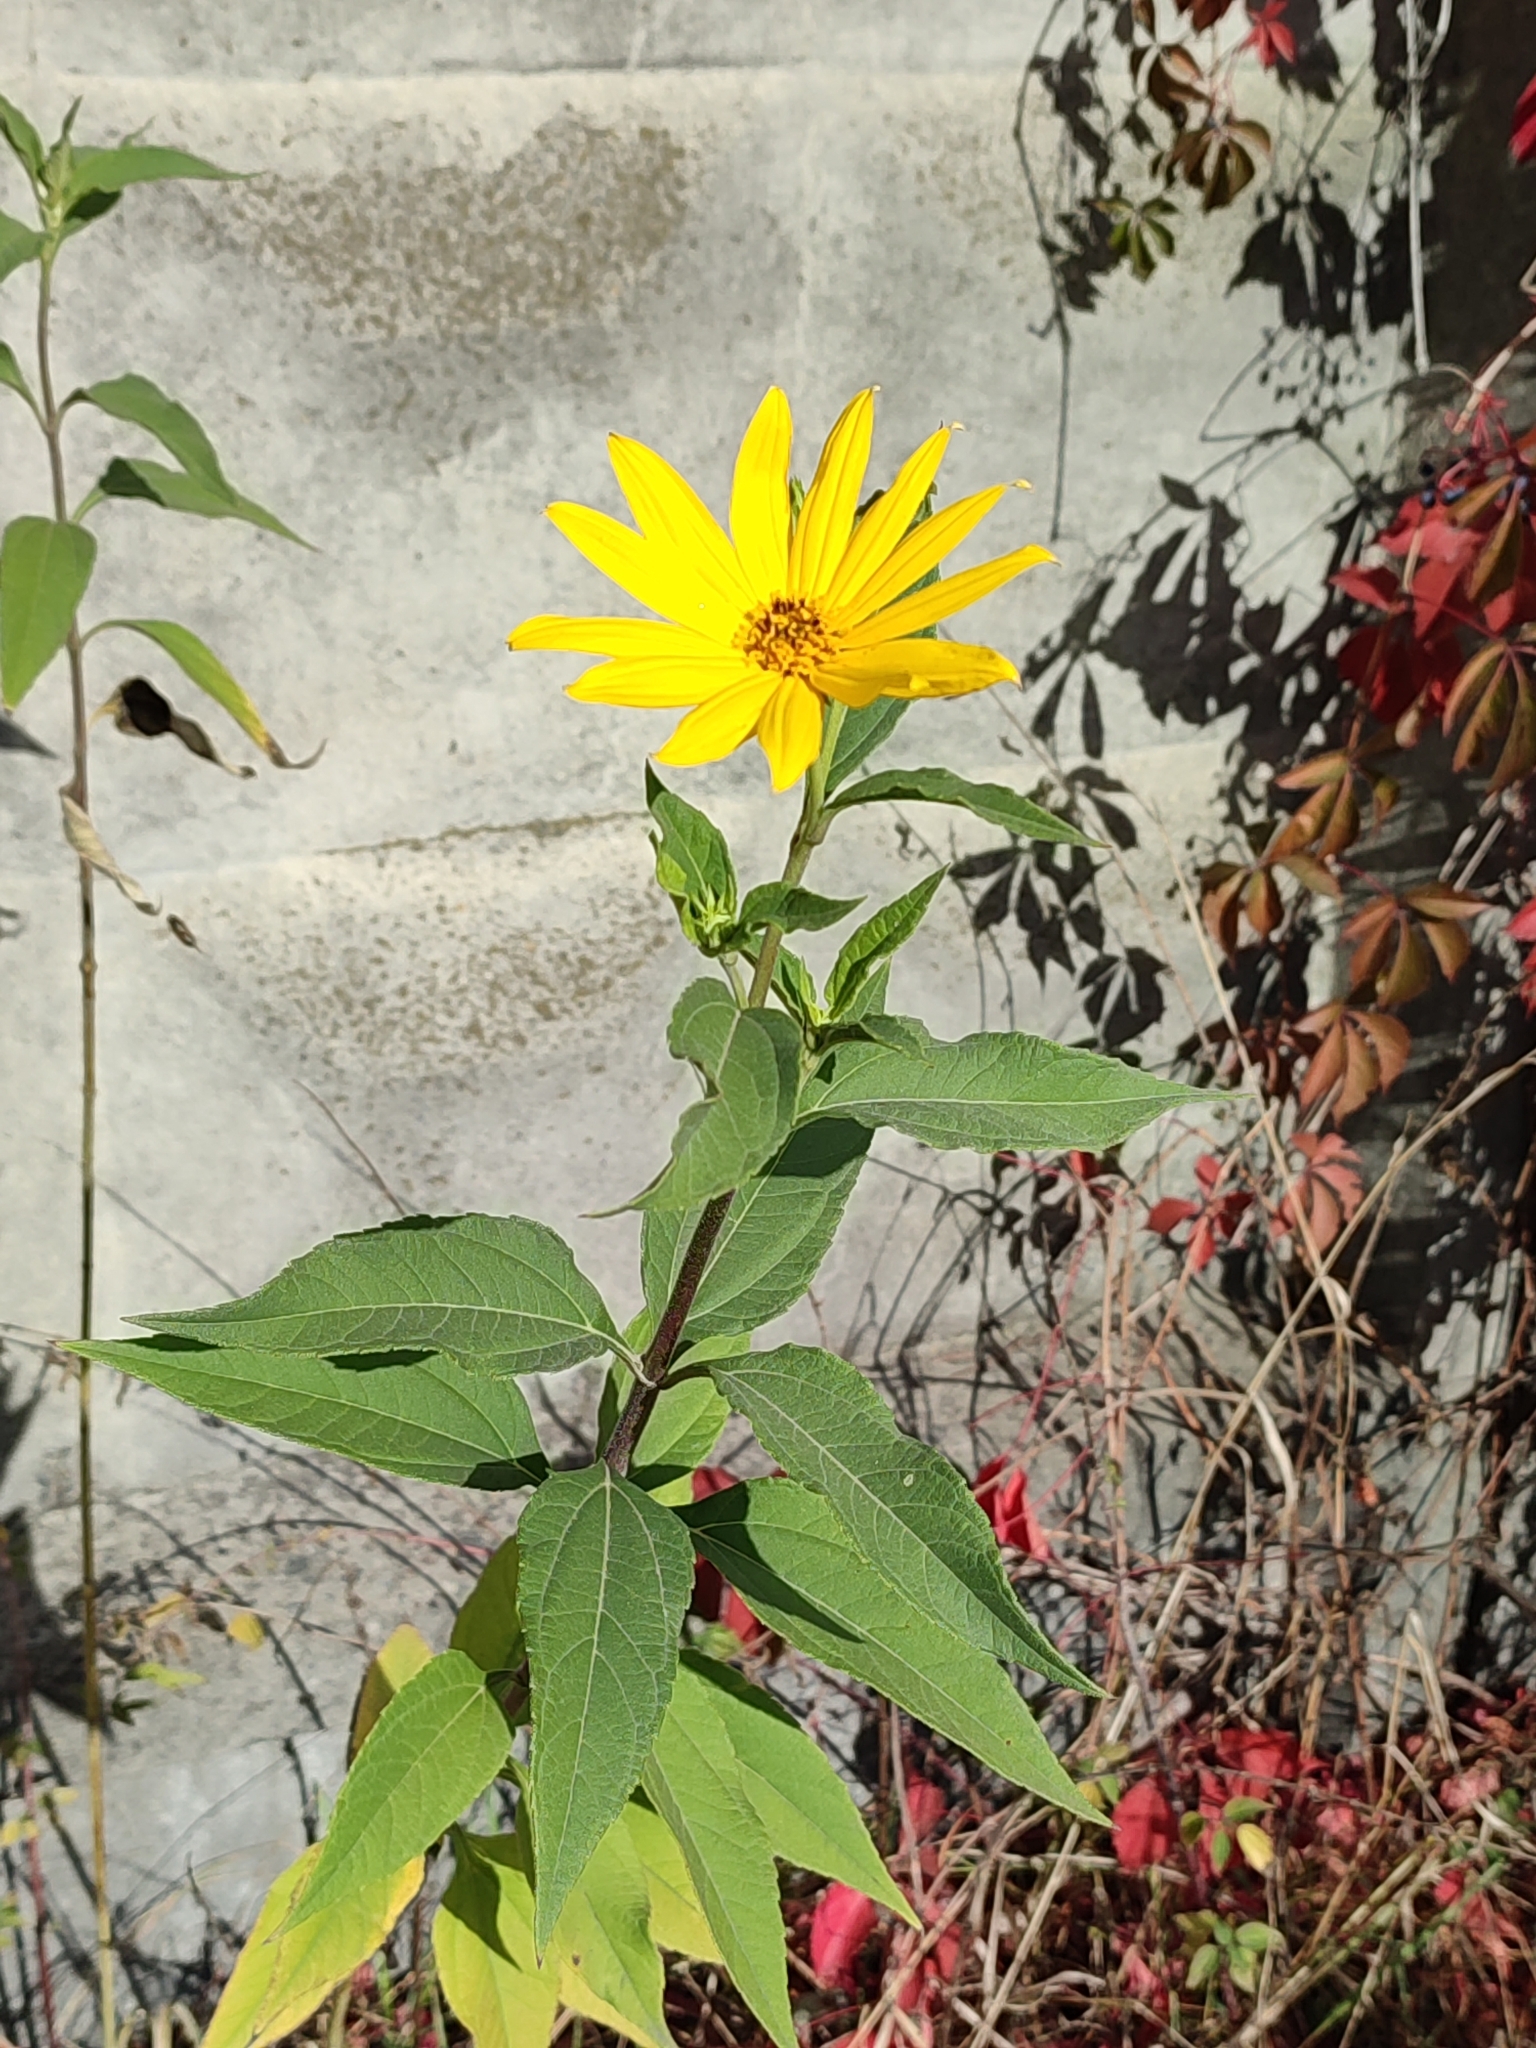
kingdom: Plantae
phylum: Tracheophyta
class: Magnoliopsida
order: Asterales
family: Asteraceae
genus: Helianthus
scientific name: Helianthus tuberosus
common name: Jerusalem artichoke
